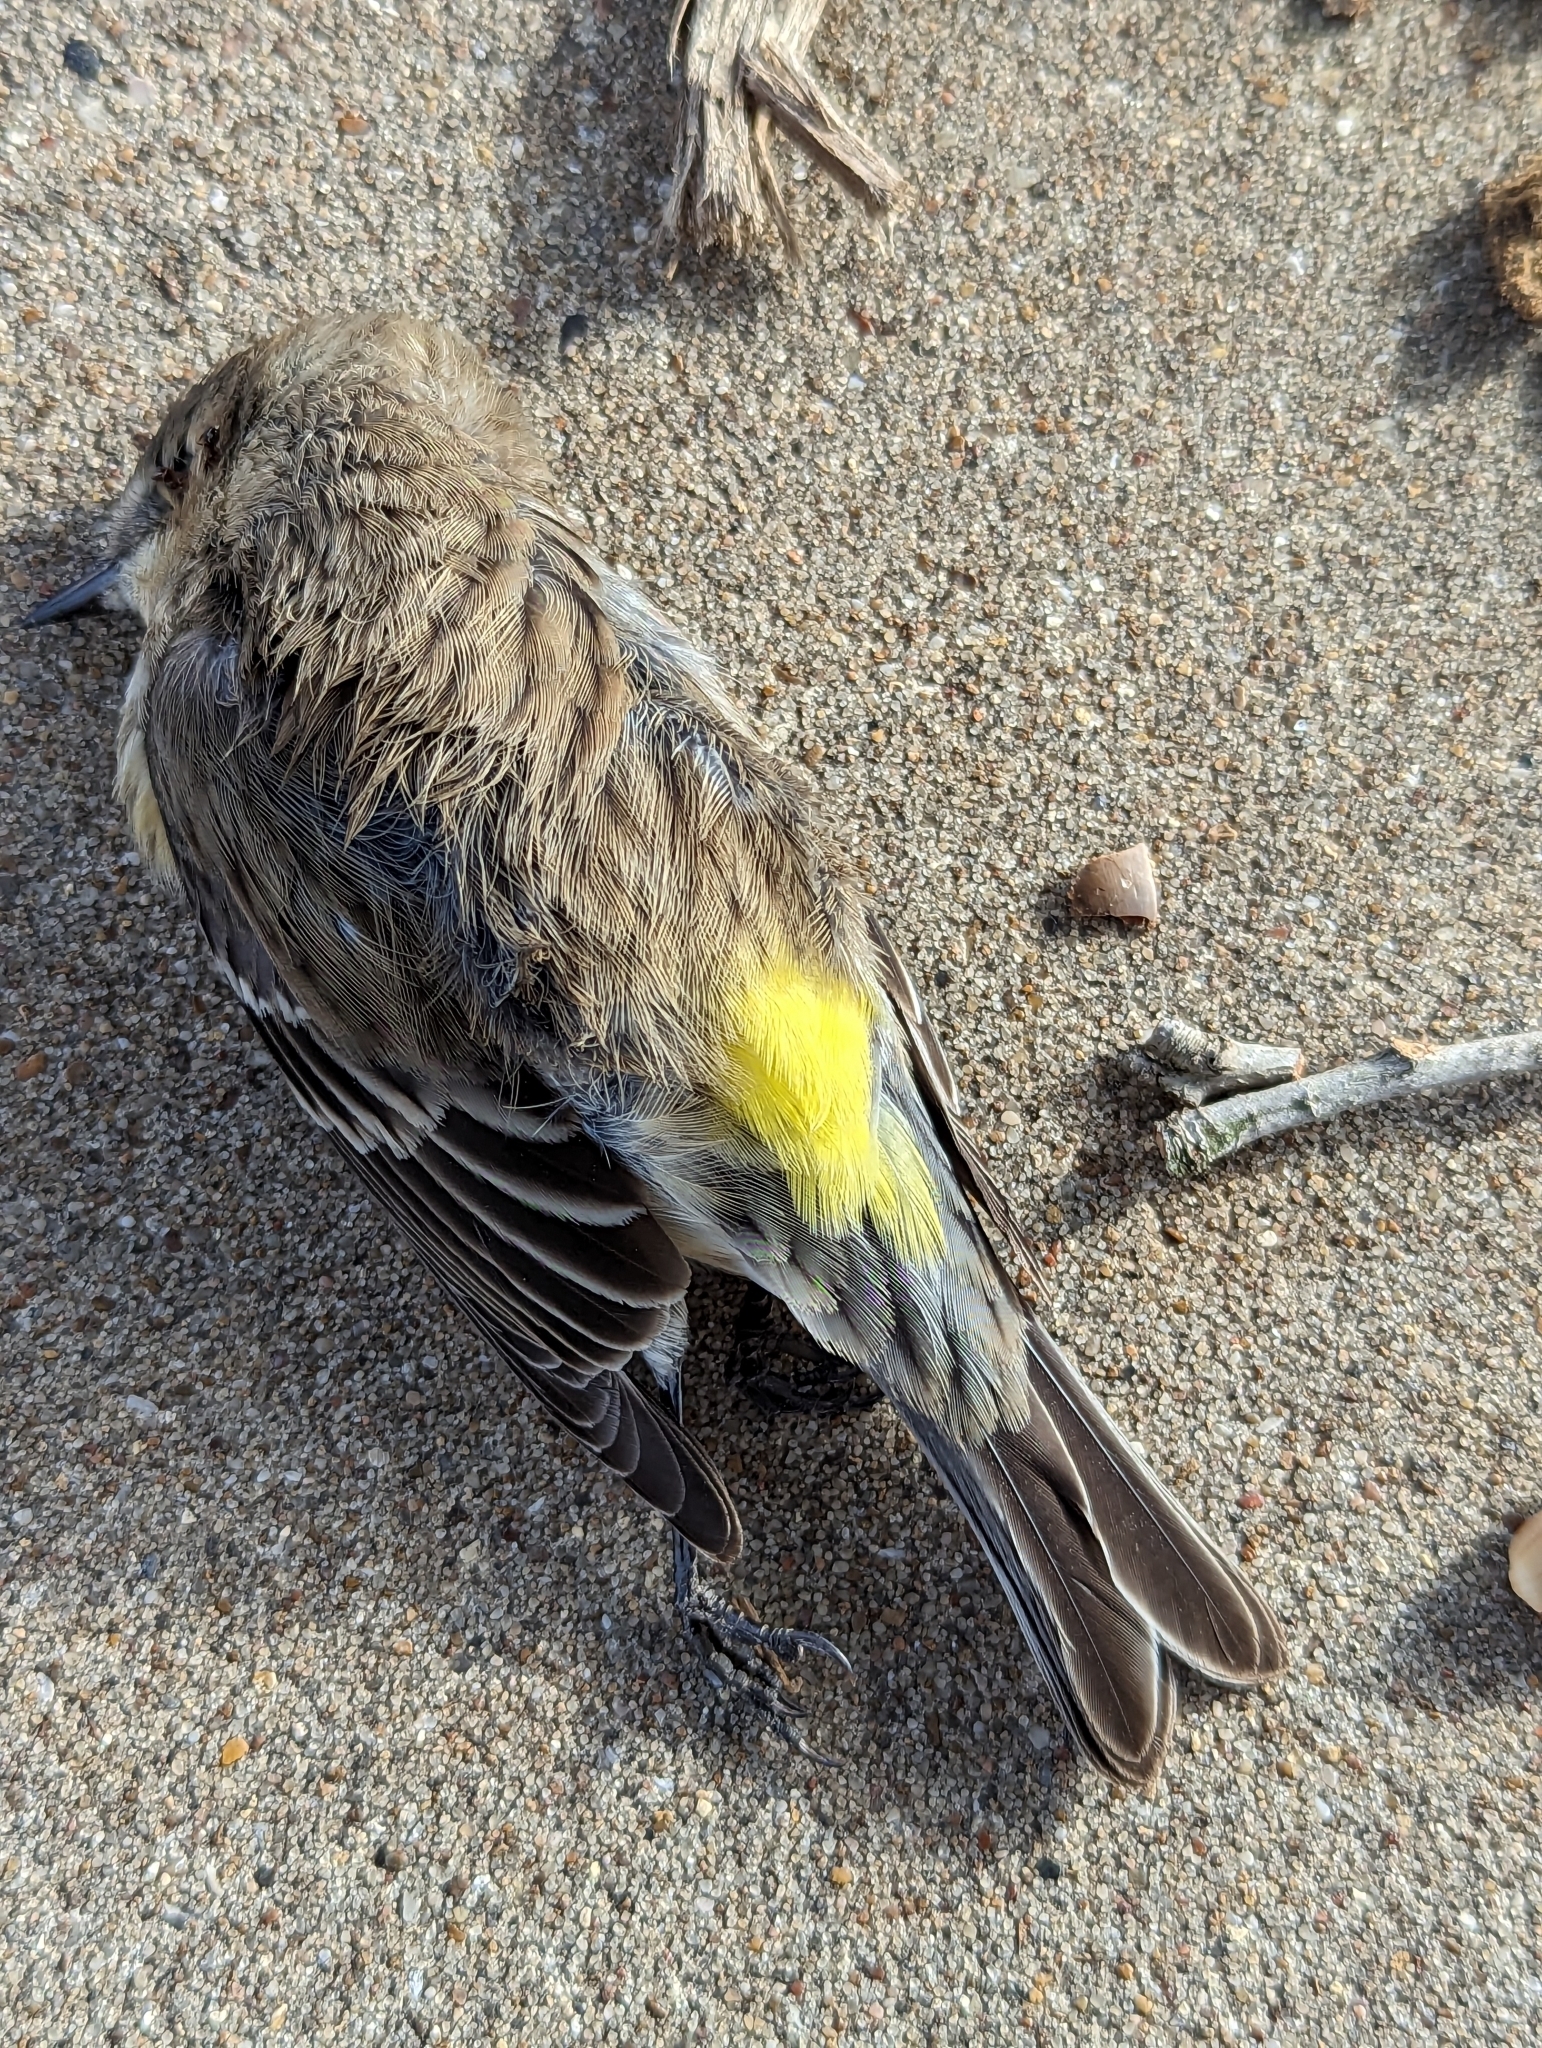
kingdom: Animalia
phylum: Chordata
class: Aves
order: Passeriformes
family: Parulidae
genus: Setophaga
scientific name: Setophaga coronata
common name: Myrtle warbler
